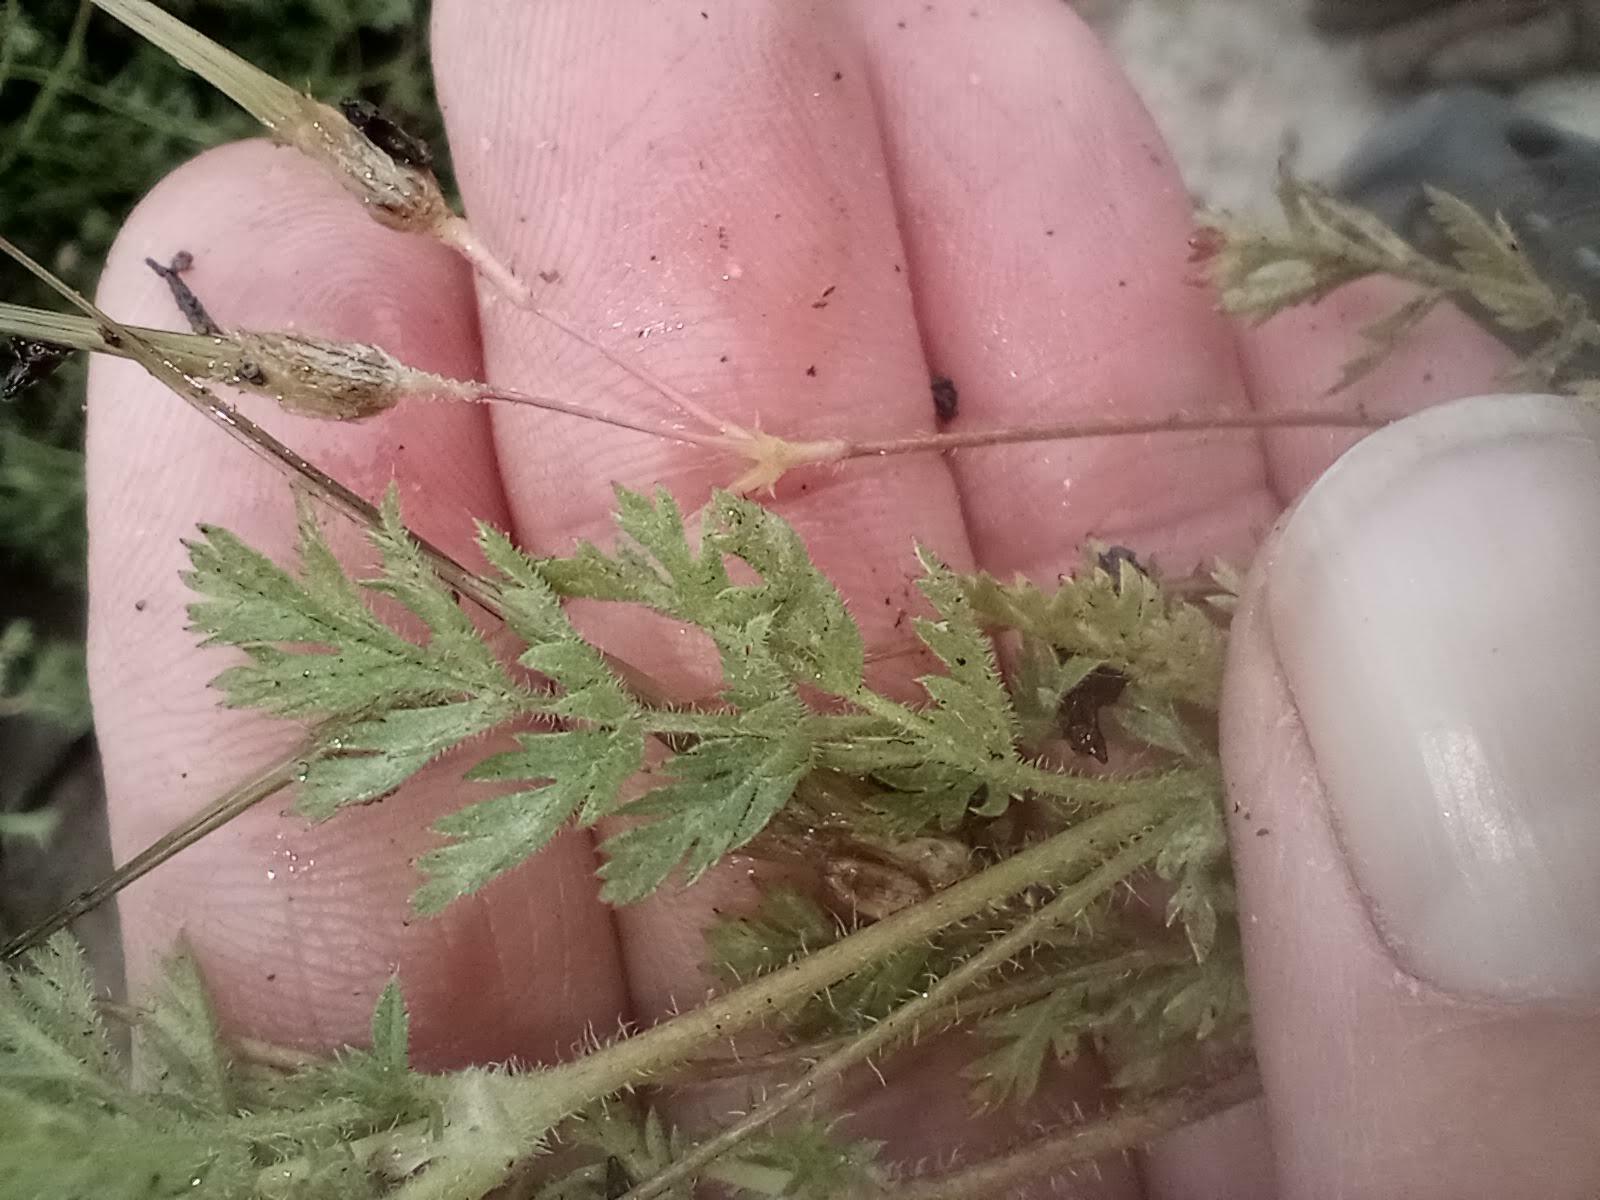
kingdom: Plantae
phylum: Tracheophyta
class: Magnoliopsida
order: Geraniales
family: Geraniaceae
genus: Erodium
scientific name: Erodium cicutarium
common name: Common stork's-bill
